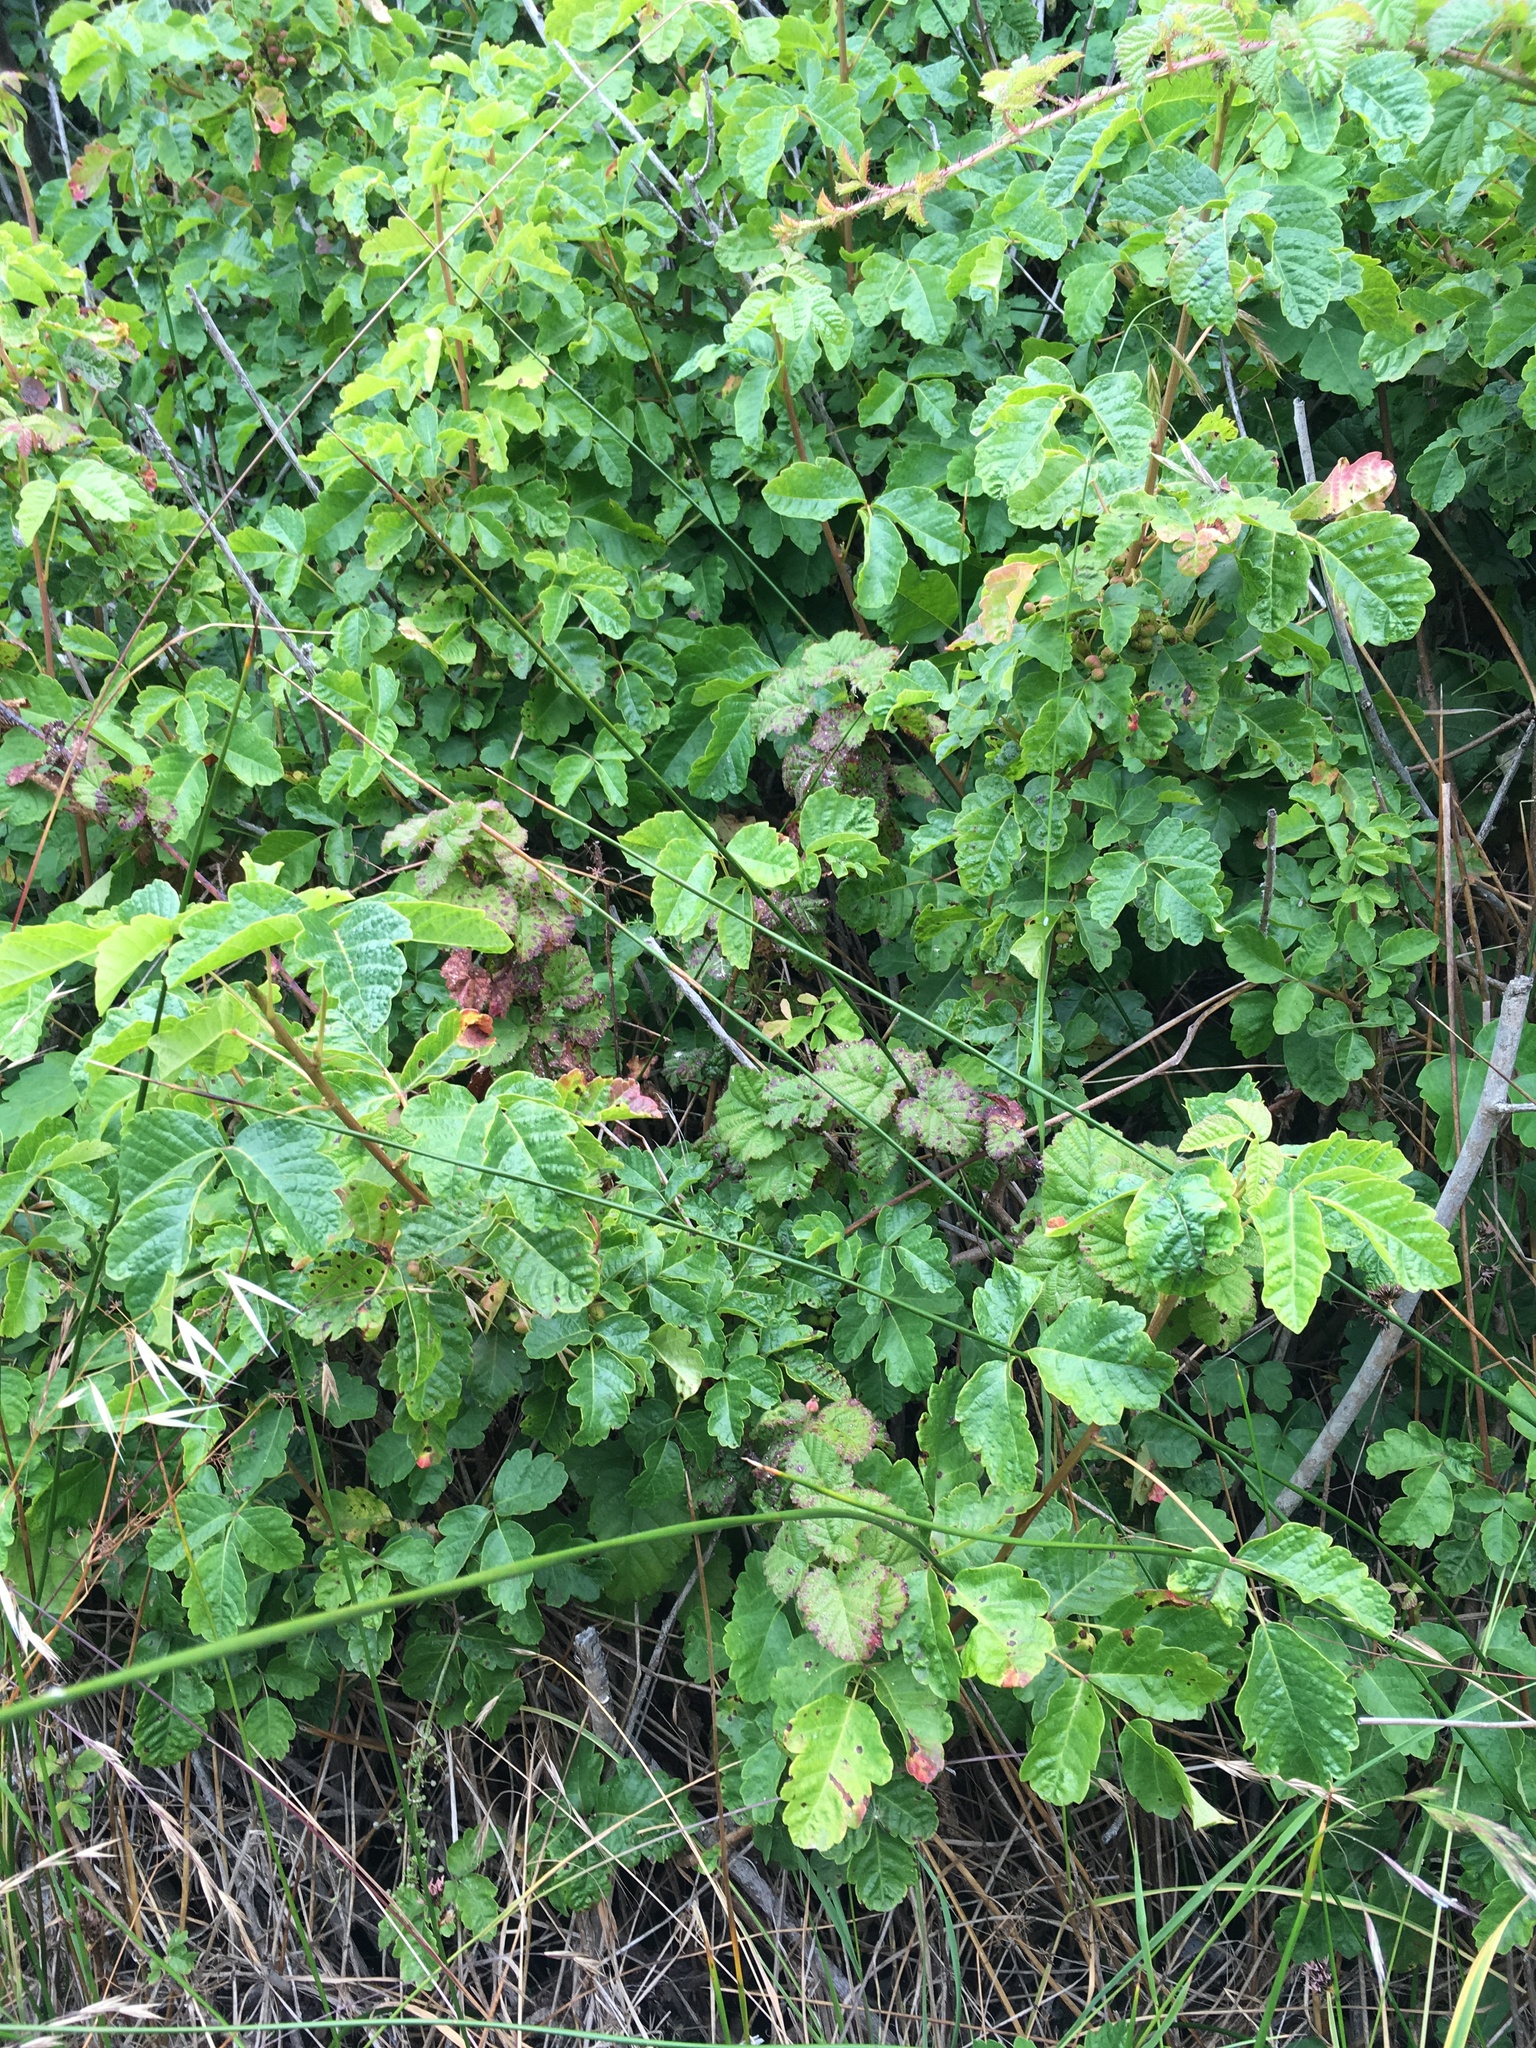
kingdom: Plantae
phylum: Tracheophyta
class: Magnoliopsida
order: Sapindales
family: Anacardiaceae
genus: Toxicodendron
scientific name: Toxicodendron diversilobum
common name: Pacific poison-oak
